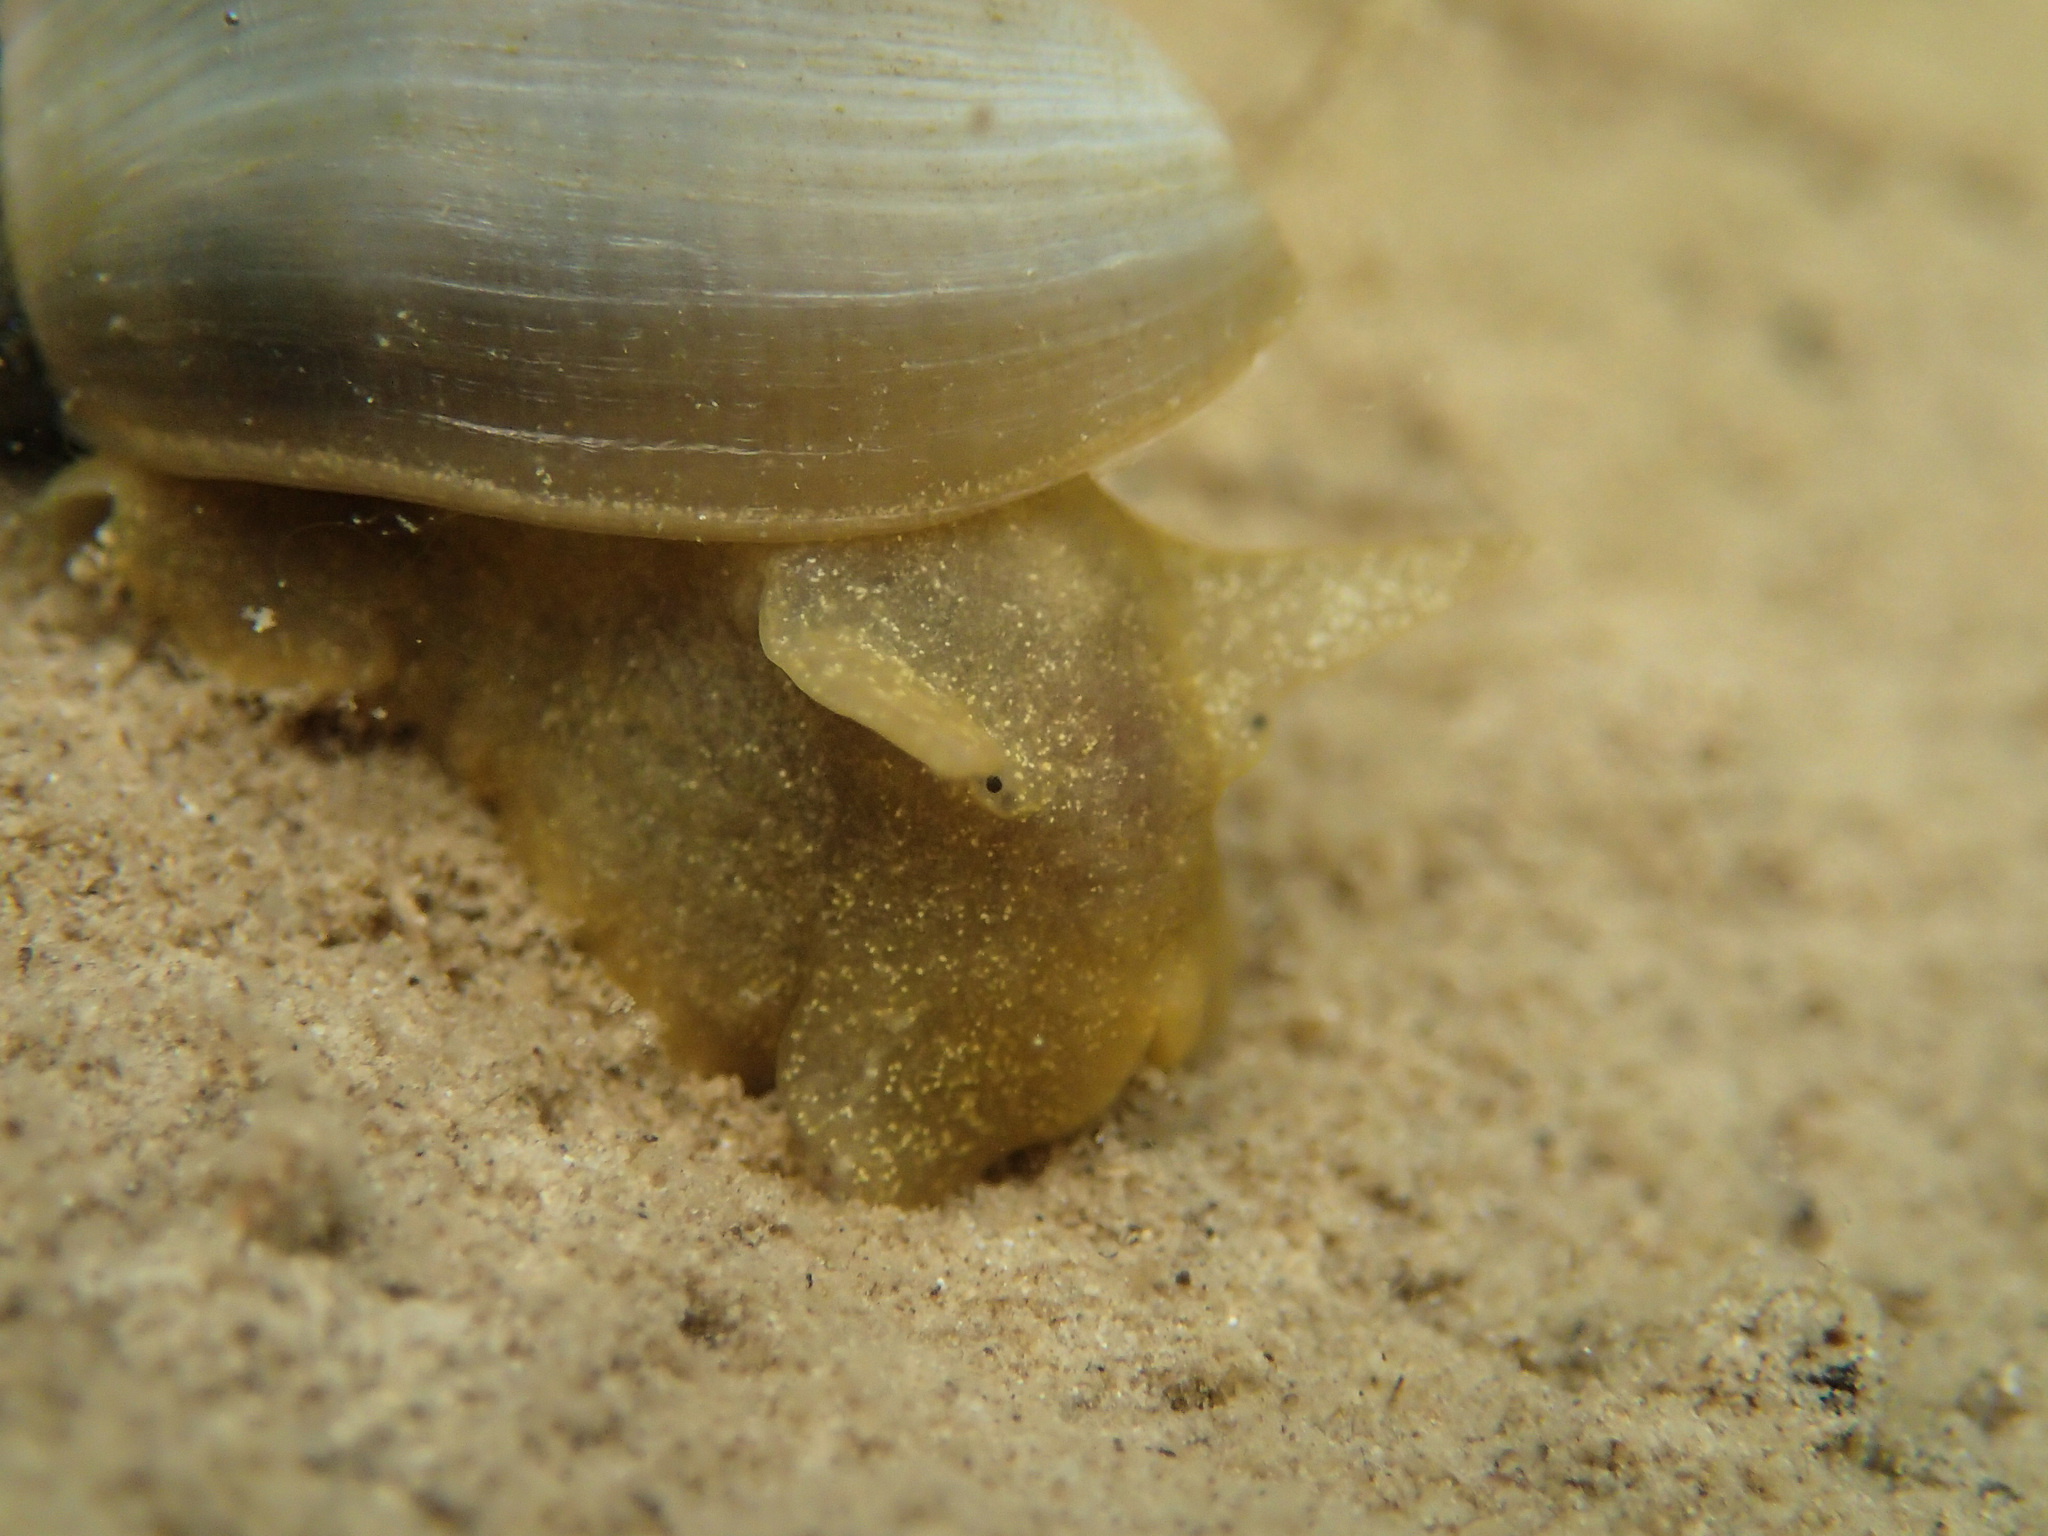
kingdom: Animalia
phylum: Mollusca
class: Gastropoda
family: Lymnaeidae
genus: Lymnaea
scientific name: Lymnaea stagnalis
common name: Great pond snail
